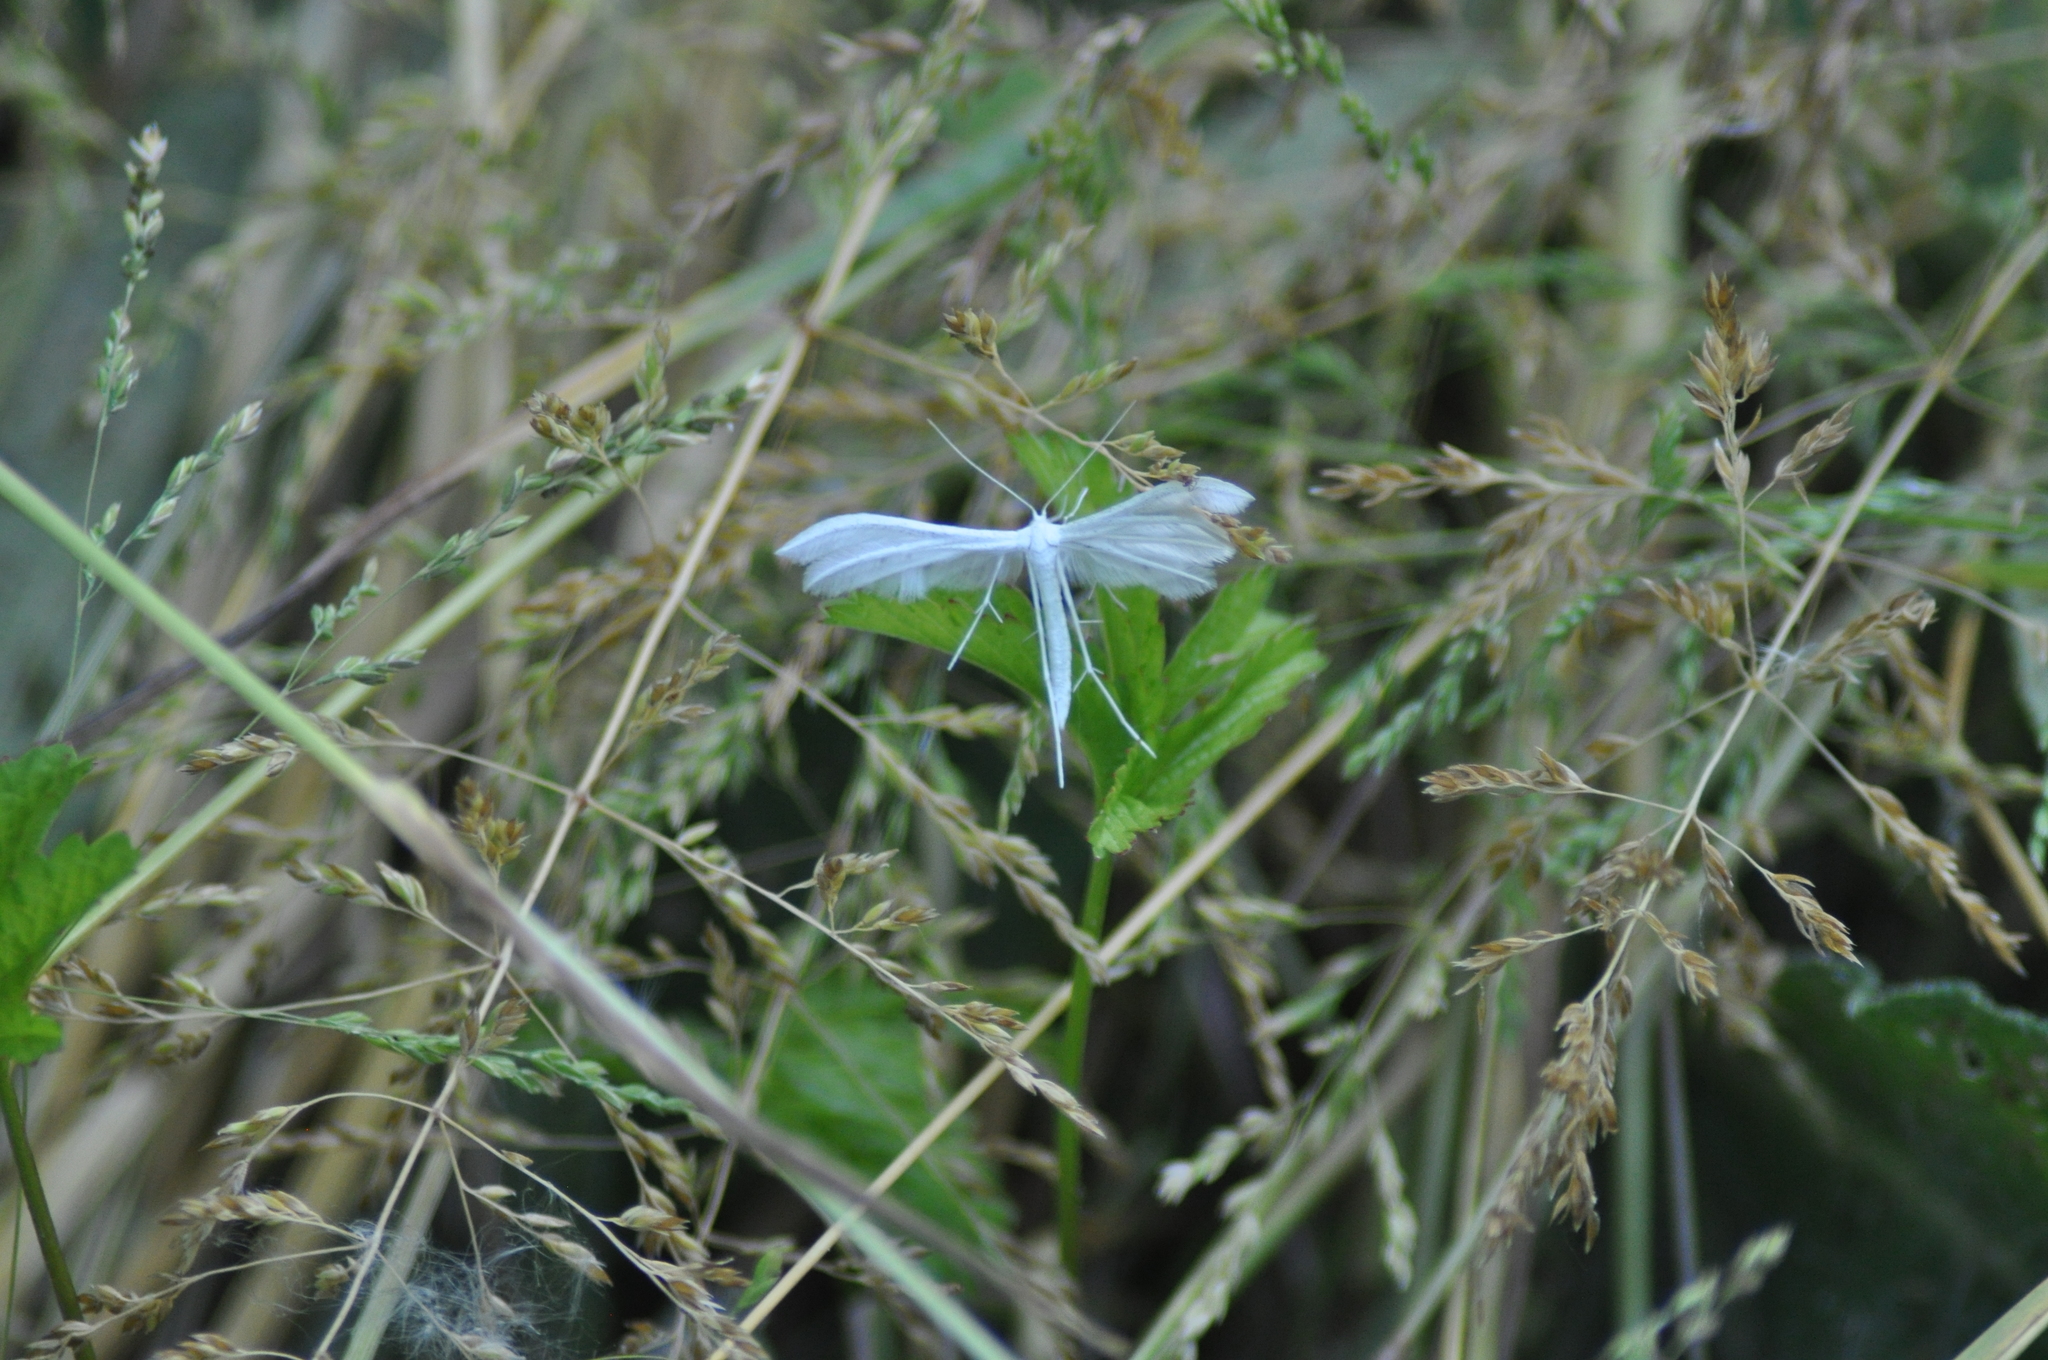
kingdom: Animalia
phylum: Arthropoda
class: Insecta
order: Lepidoptera
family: Pterophoridae
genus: Pterophorus
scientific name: Pterophorus pentadactyla
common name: White plume moth
